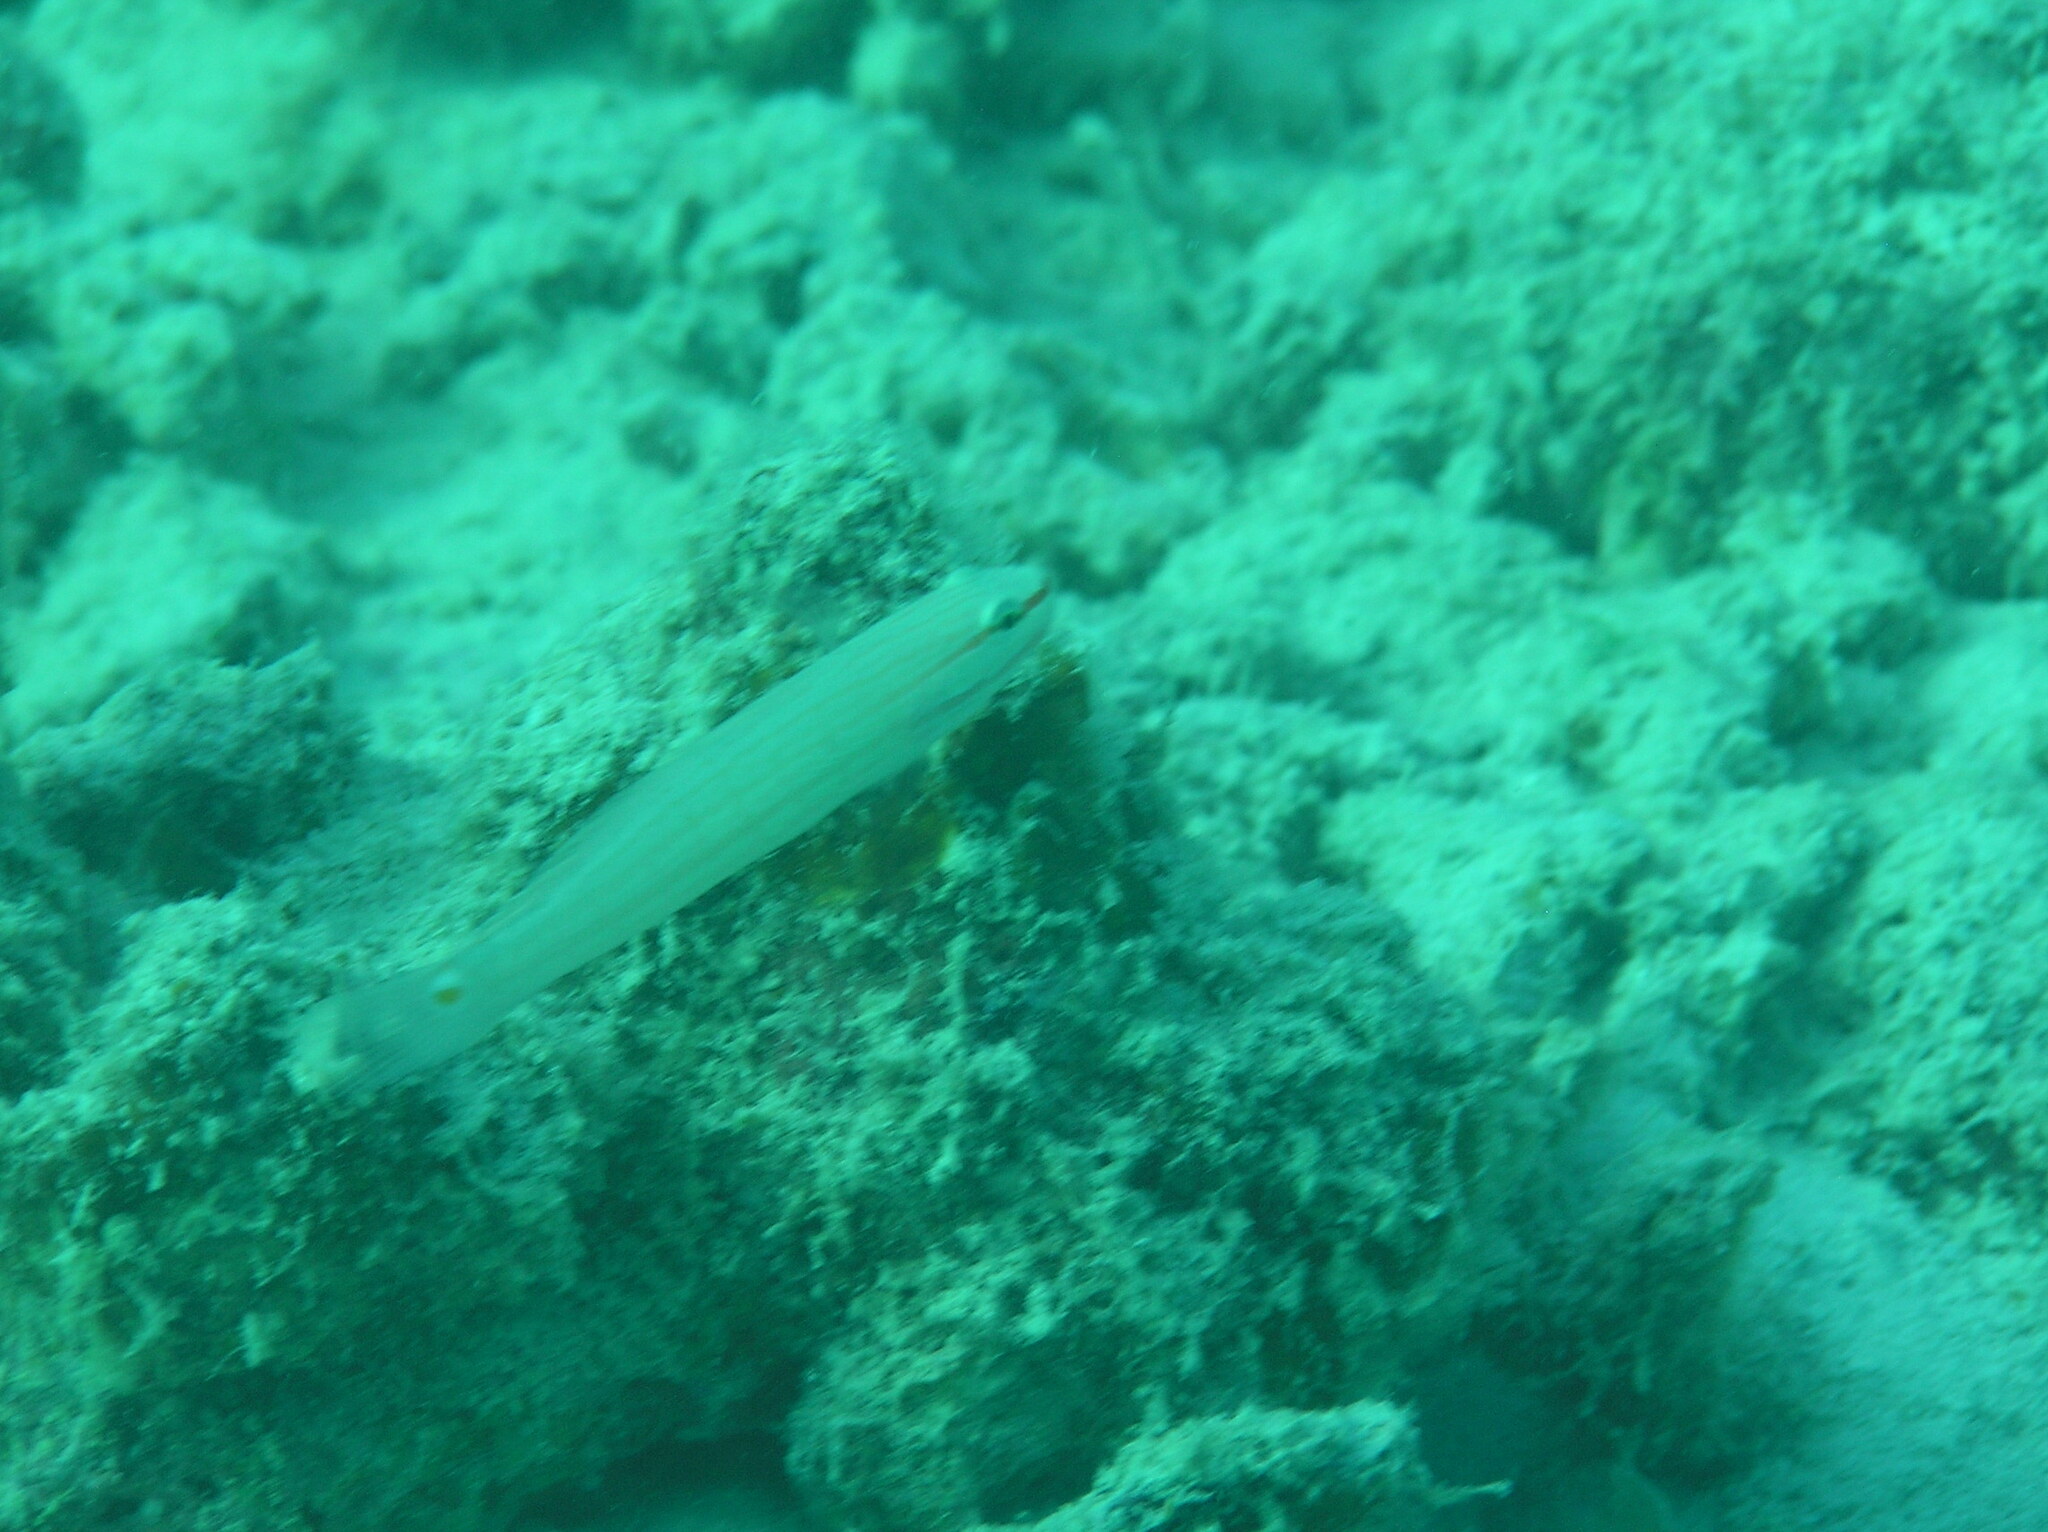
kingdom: Animalia
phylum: Chordata
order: Perciformes
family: Gobiidae
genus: Amblygobius
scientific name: Amblygobius decussatus
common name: Crosshatch goby
